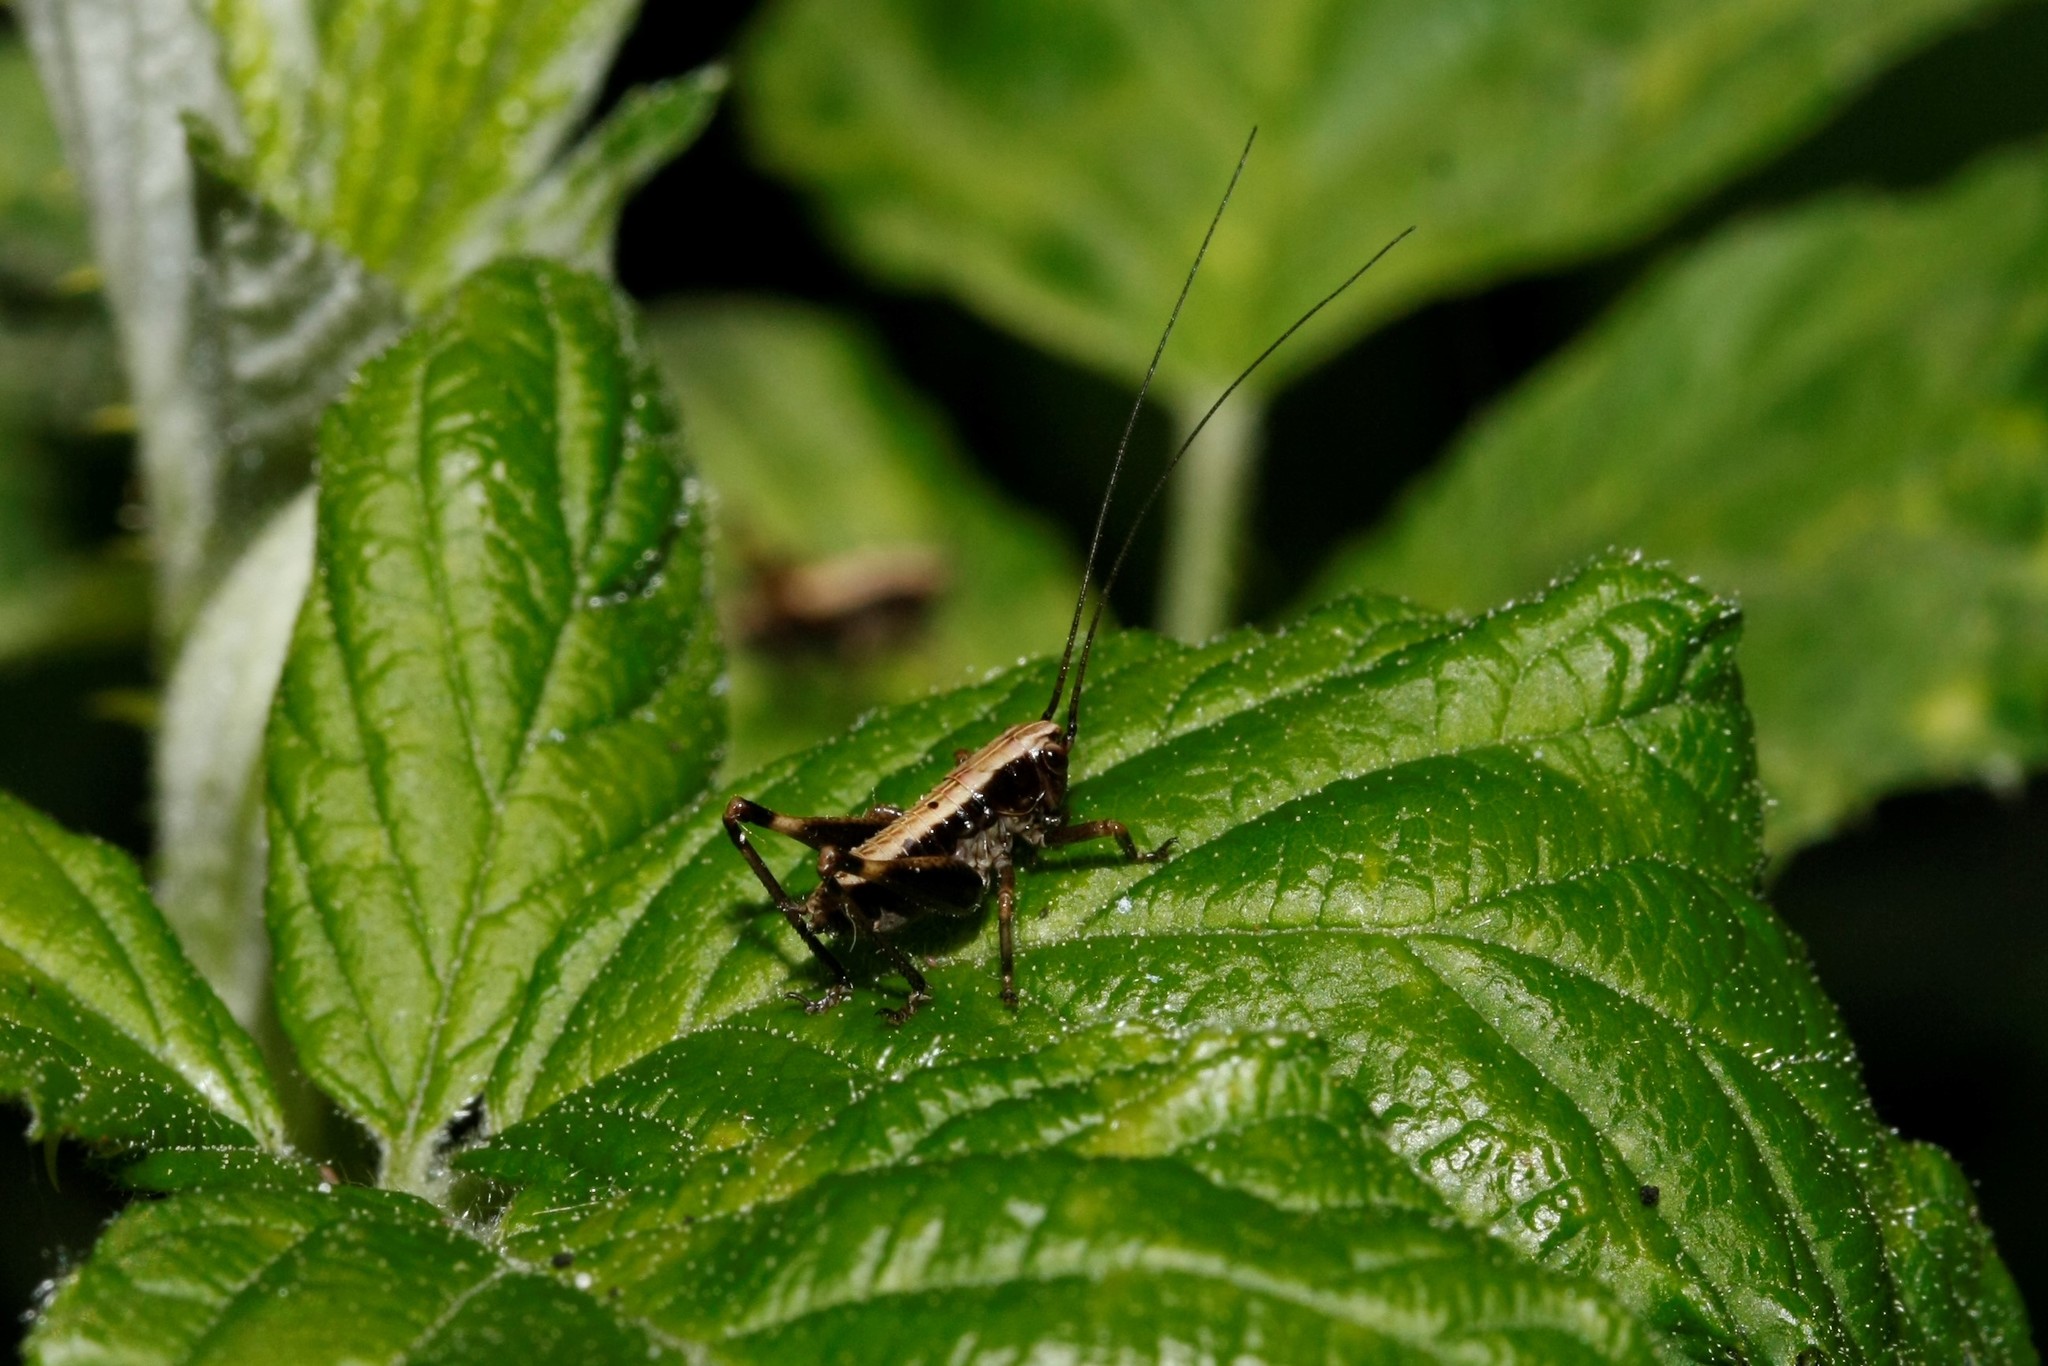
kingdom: Animalia
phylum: Arthropoda
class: Insecta
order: Orthoptera
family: Tettigoniidae
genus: Pholidoptera
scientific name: Pholidoptera griseoaptera
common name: Dark bush-cricket
